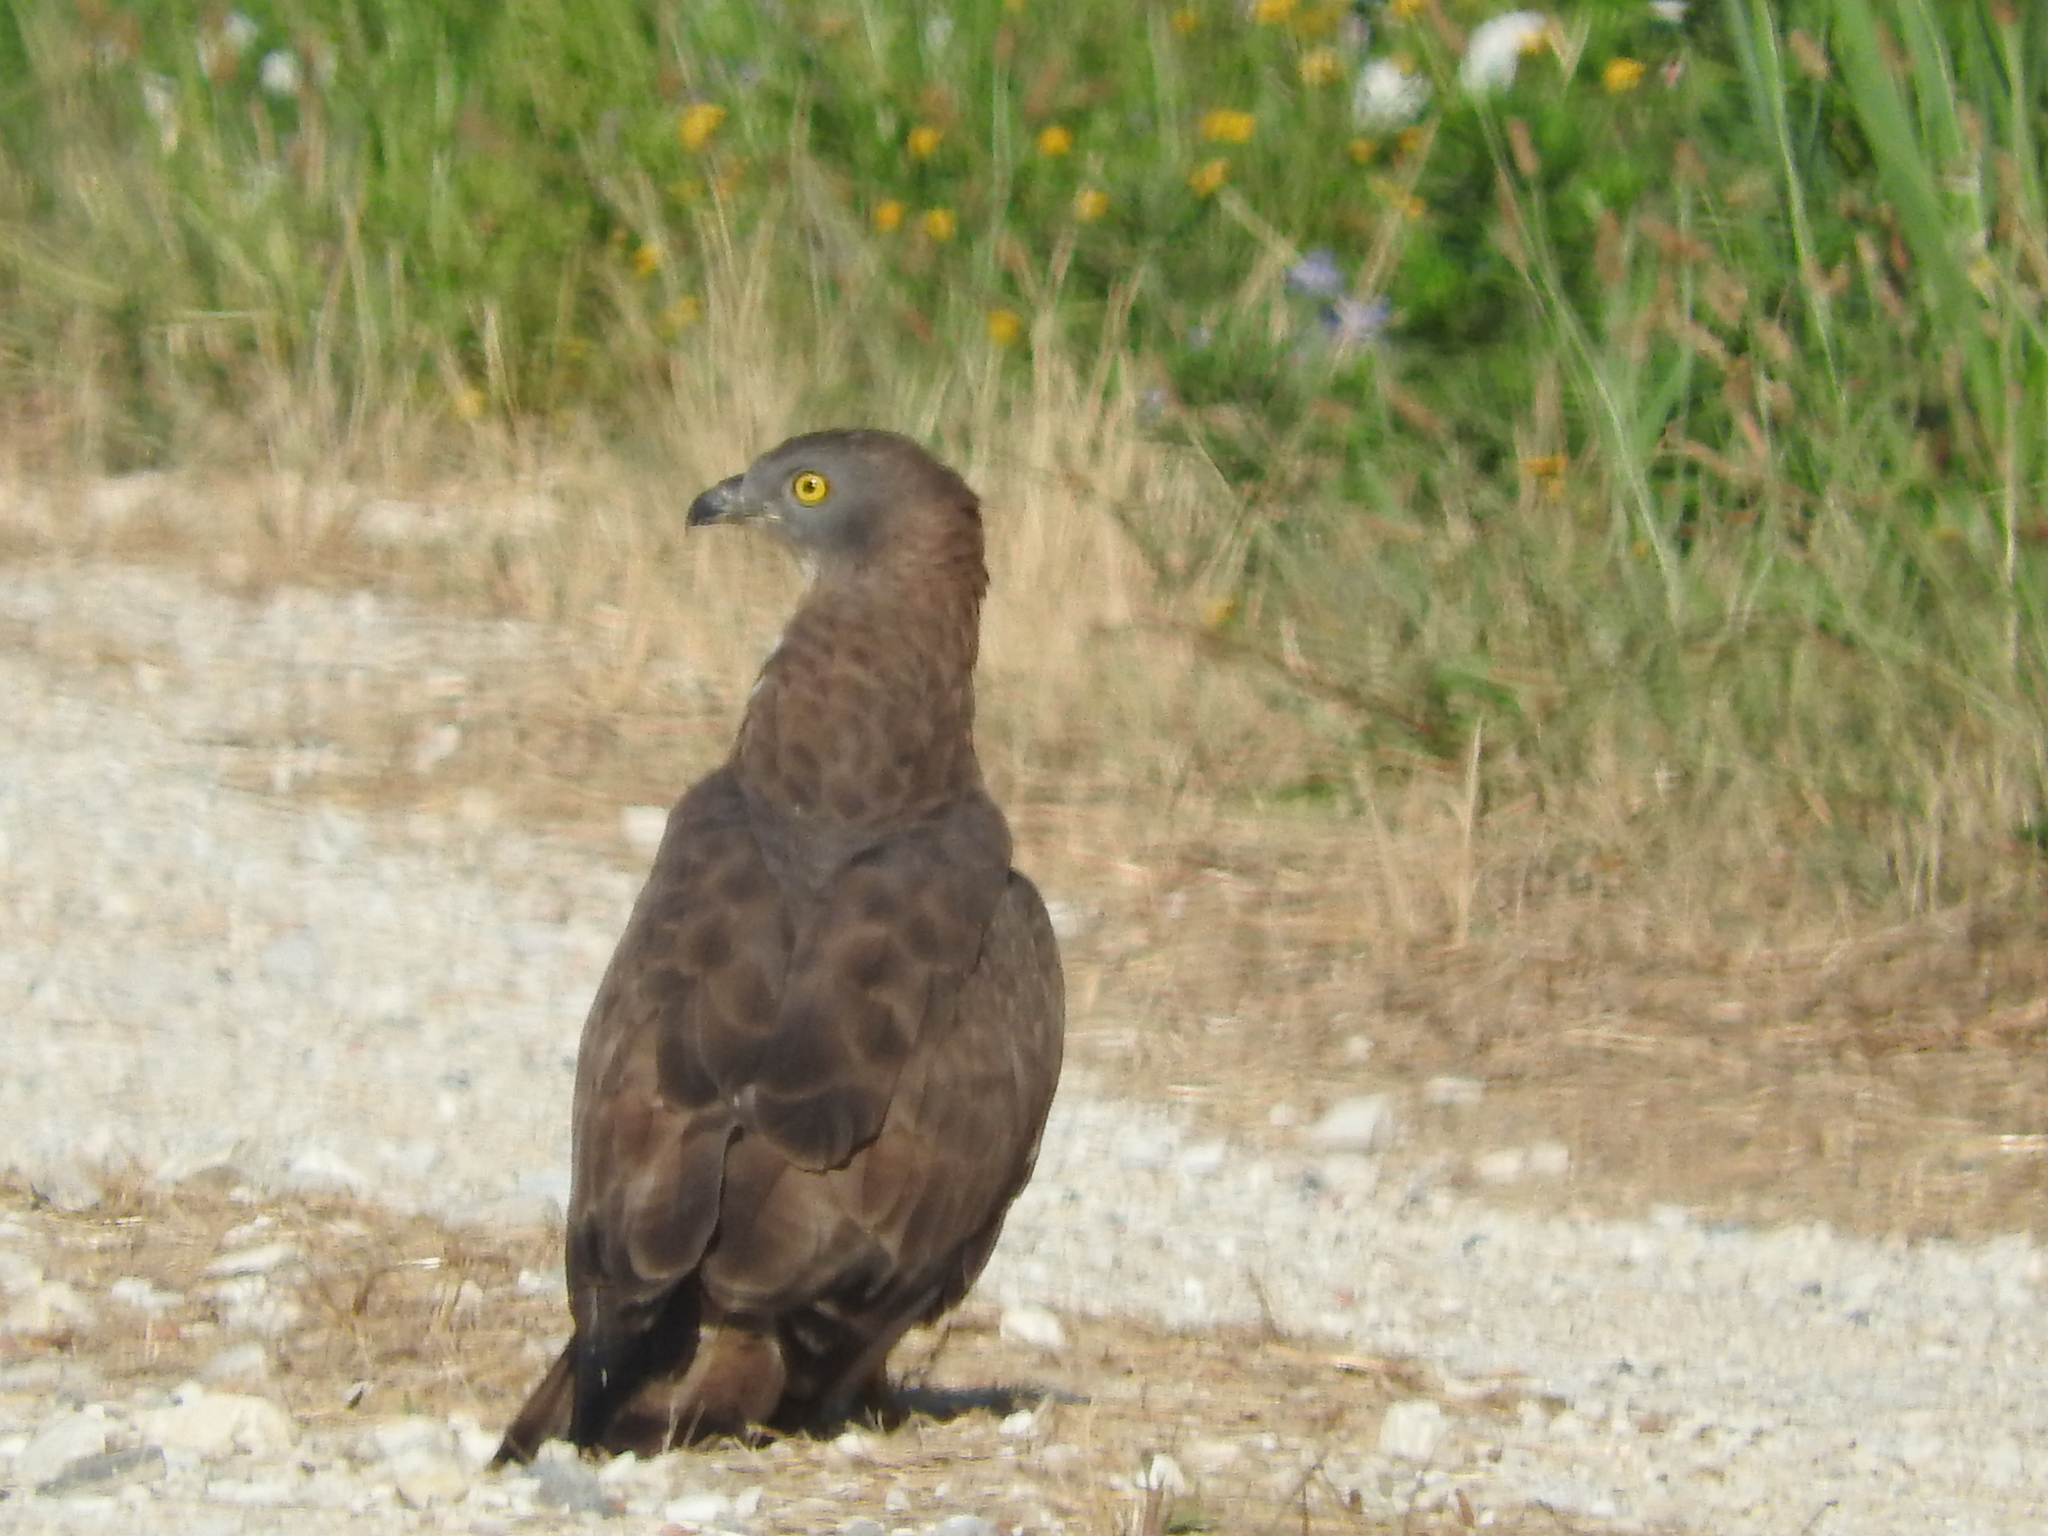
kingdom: Animalia
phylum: Chordata
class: Aves
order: Accipitriformes
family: Accipitridae
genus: Pernis
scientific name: Pernis apivorus
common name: European honey buzzard
